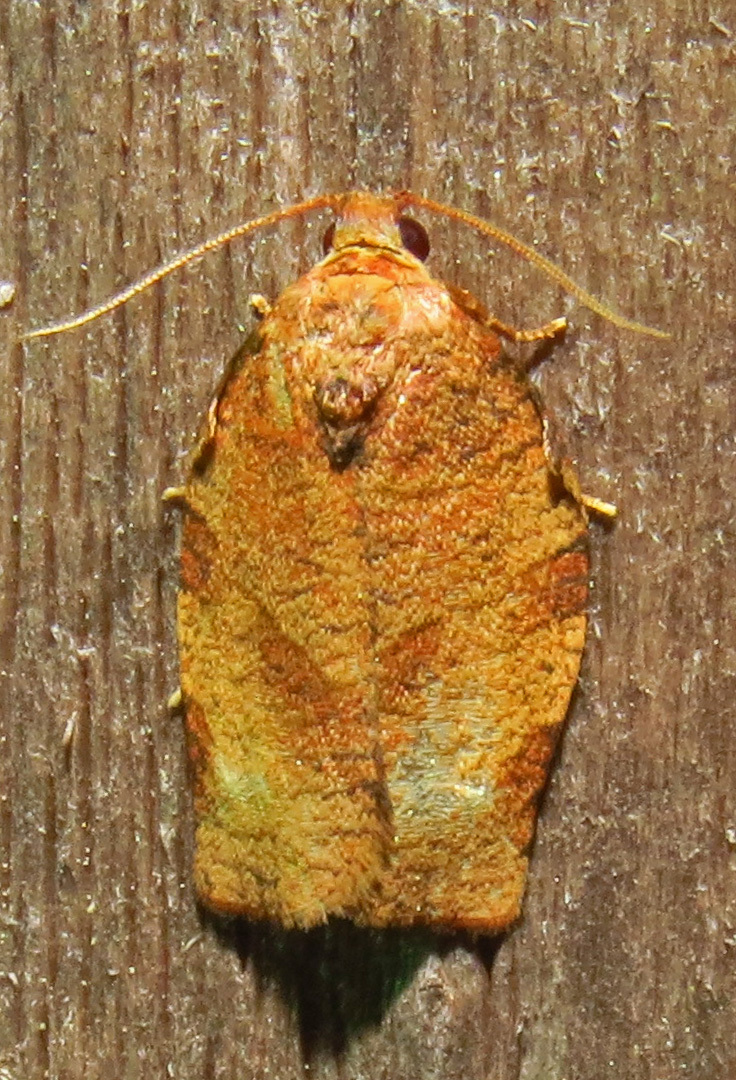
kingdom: Animalia
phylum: Arthropoda
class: Insecta
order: Lepidoptera
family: Tortricidae
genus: Choristoneura
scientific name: Choristoneura rosaceana
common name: Oblique-banded leafroller moth
